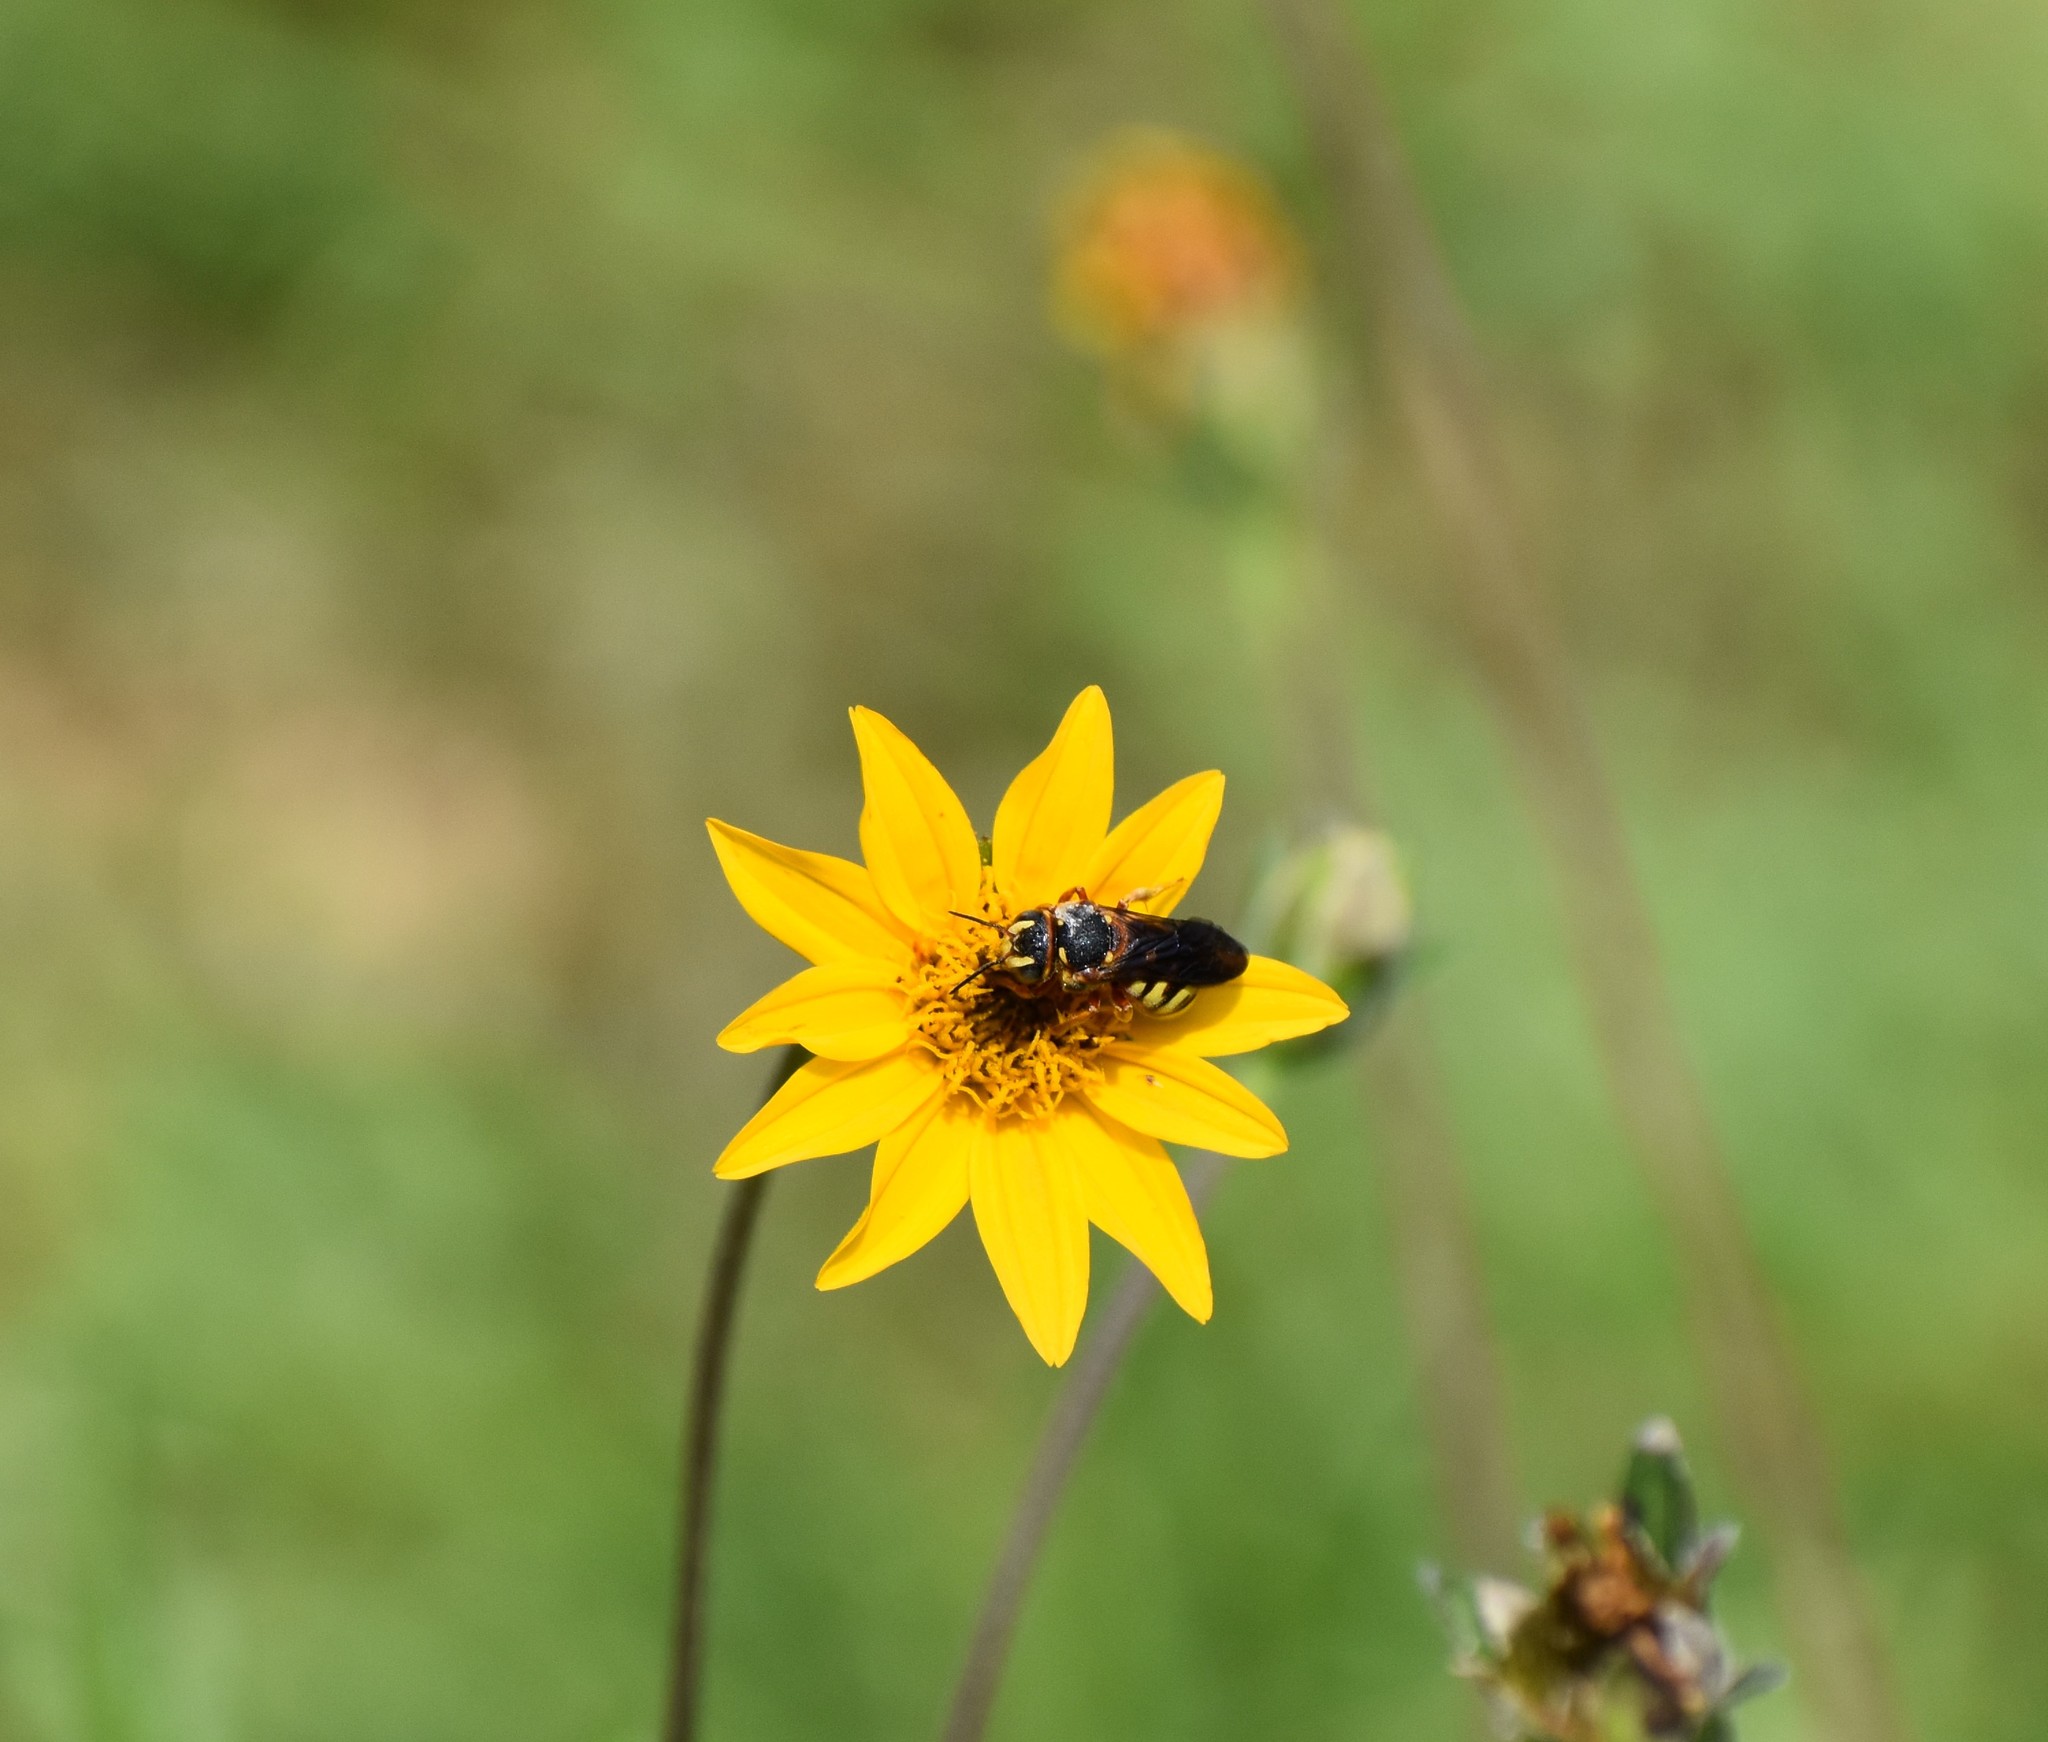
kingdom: Animalia
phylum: Arthropoda
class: Insecta
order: Hymenoptera
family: Megachilidae
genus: Dianthidium
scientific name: Dianthidium curvatum
